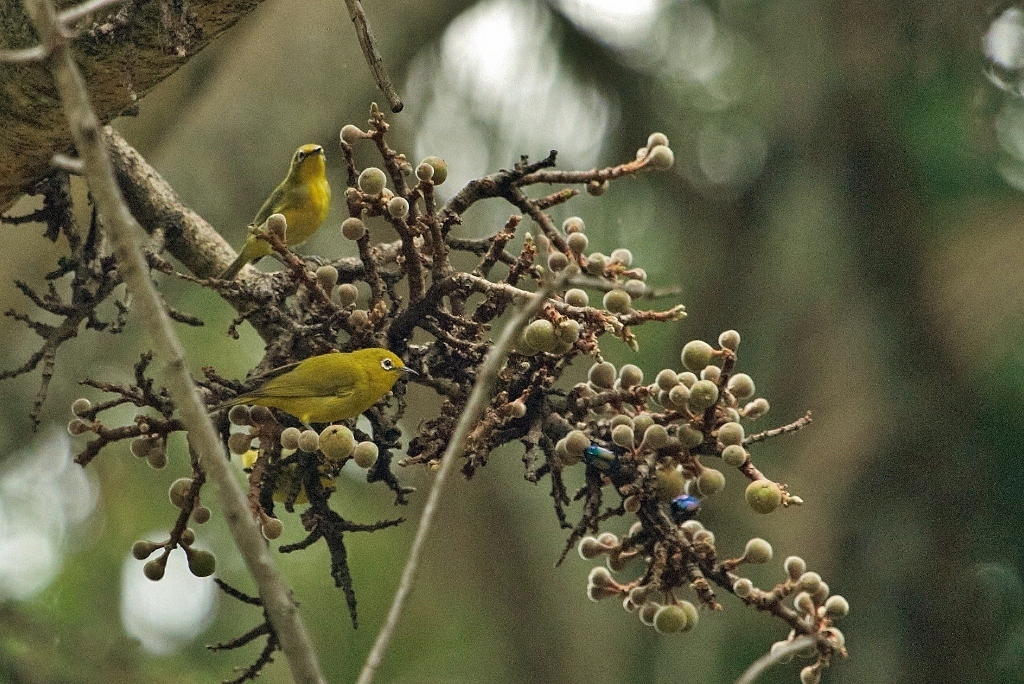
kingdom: Animalia
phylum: Arthropoda
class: Insecta
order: Coleoptera
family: Scarabaeidae
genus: Chlorocala
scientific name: Chlorocala africana
